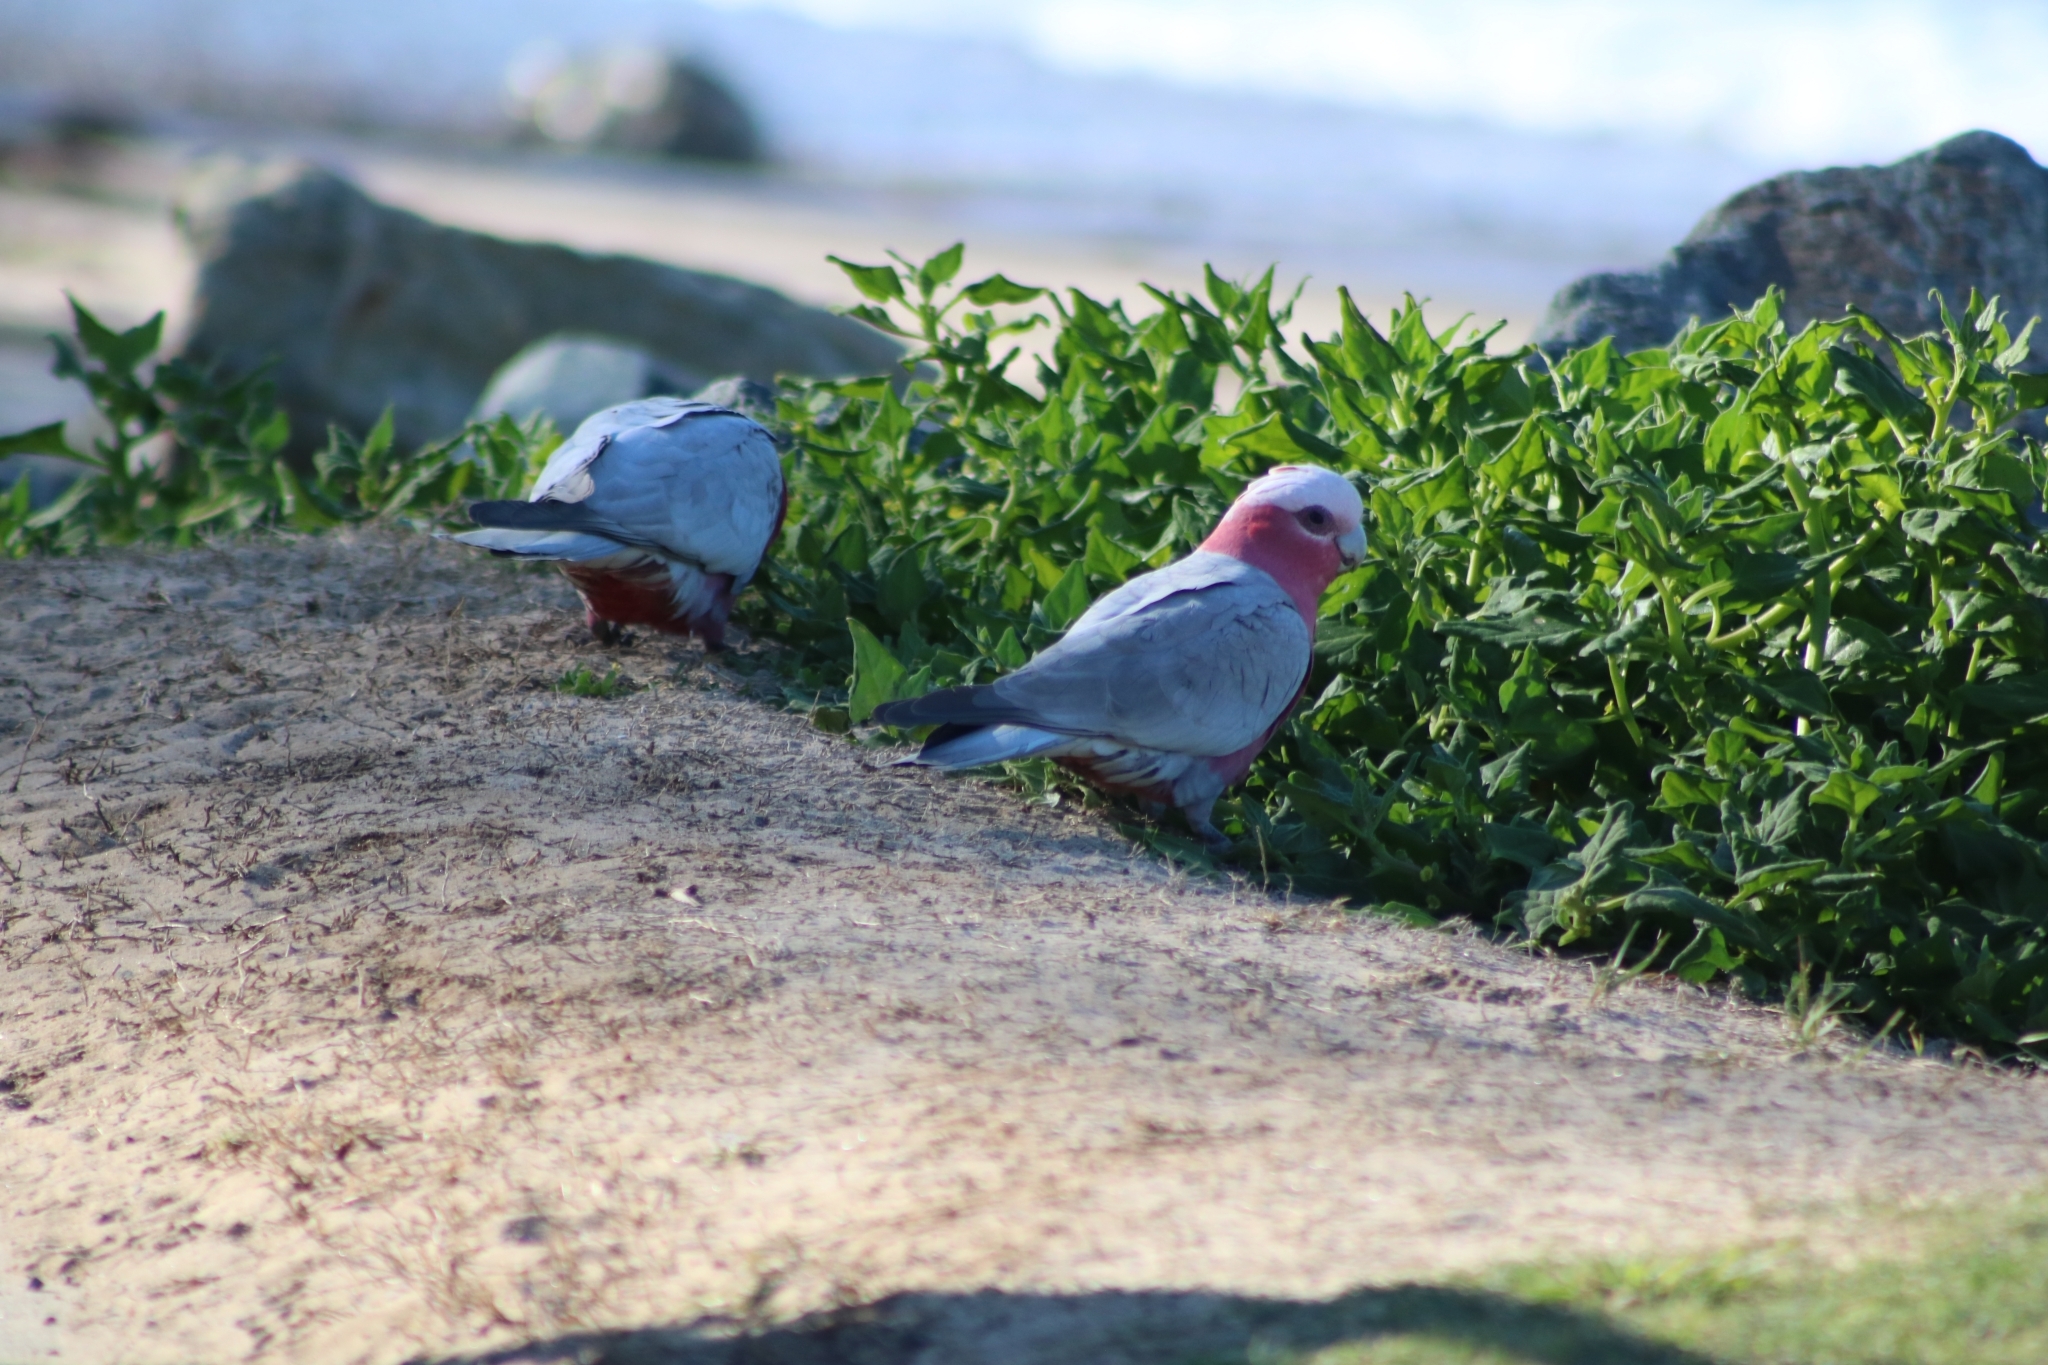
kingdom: Animalia
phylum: Chordata
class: Aves
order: Psittaciformes
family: Psittacidae
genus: Eolophus
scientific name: Eolophus roseicapilla
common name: Galah
